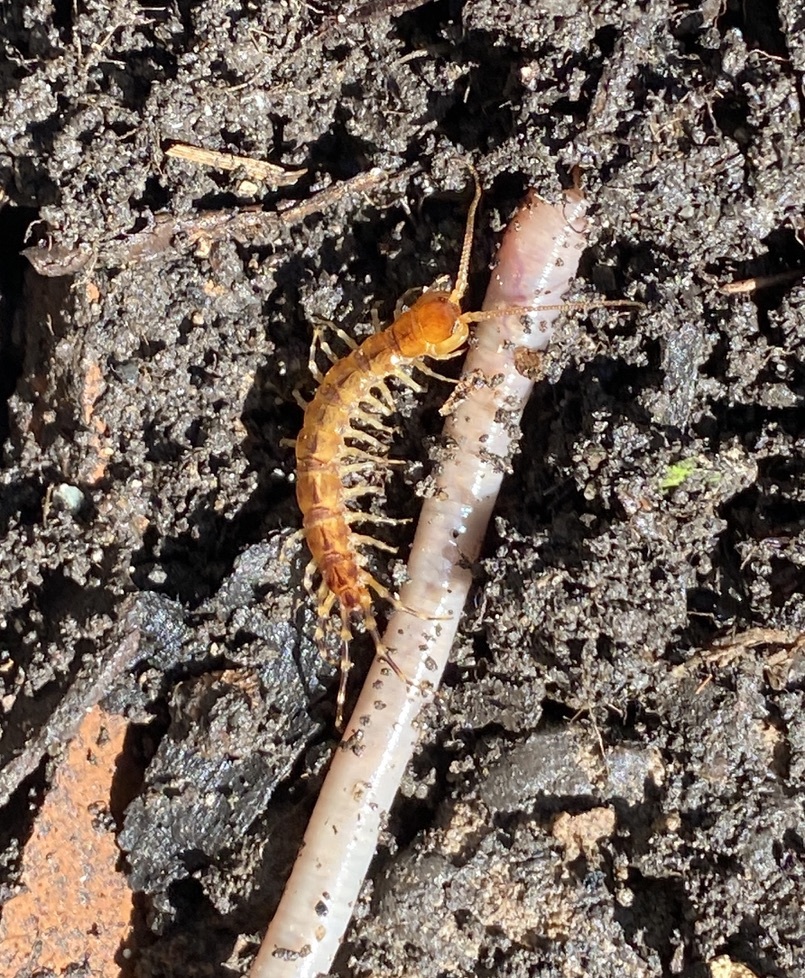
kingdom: Animalia
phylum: Arthropoda
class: Chilopoda
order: Lithobiomorpha
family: Lithobiidae
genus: Lithobius
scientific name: Lithobius variegatus
